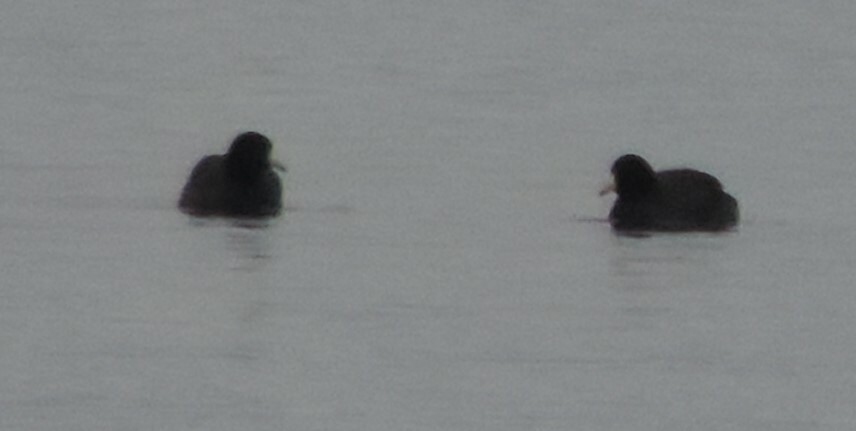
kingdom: Animalia
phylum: Chordata
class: Aves
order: Gruiformes
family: Rallidae
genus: Fulica
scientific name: Fulica americana
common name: American coot
